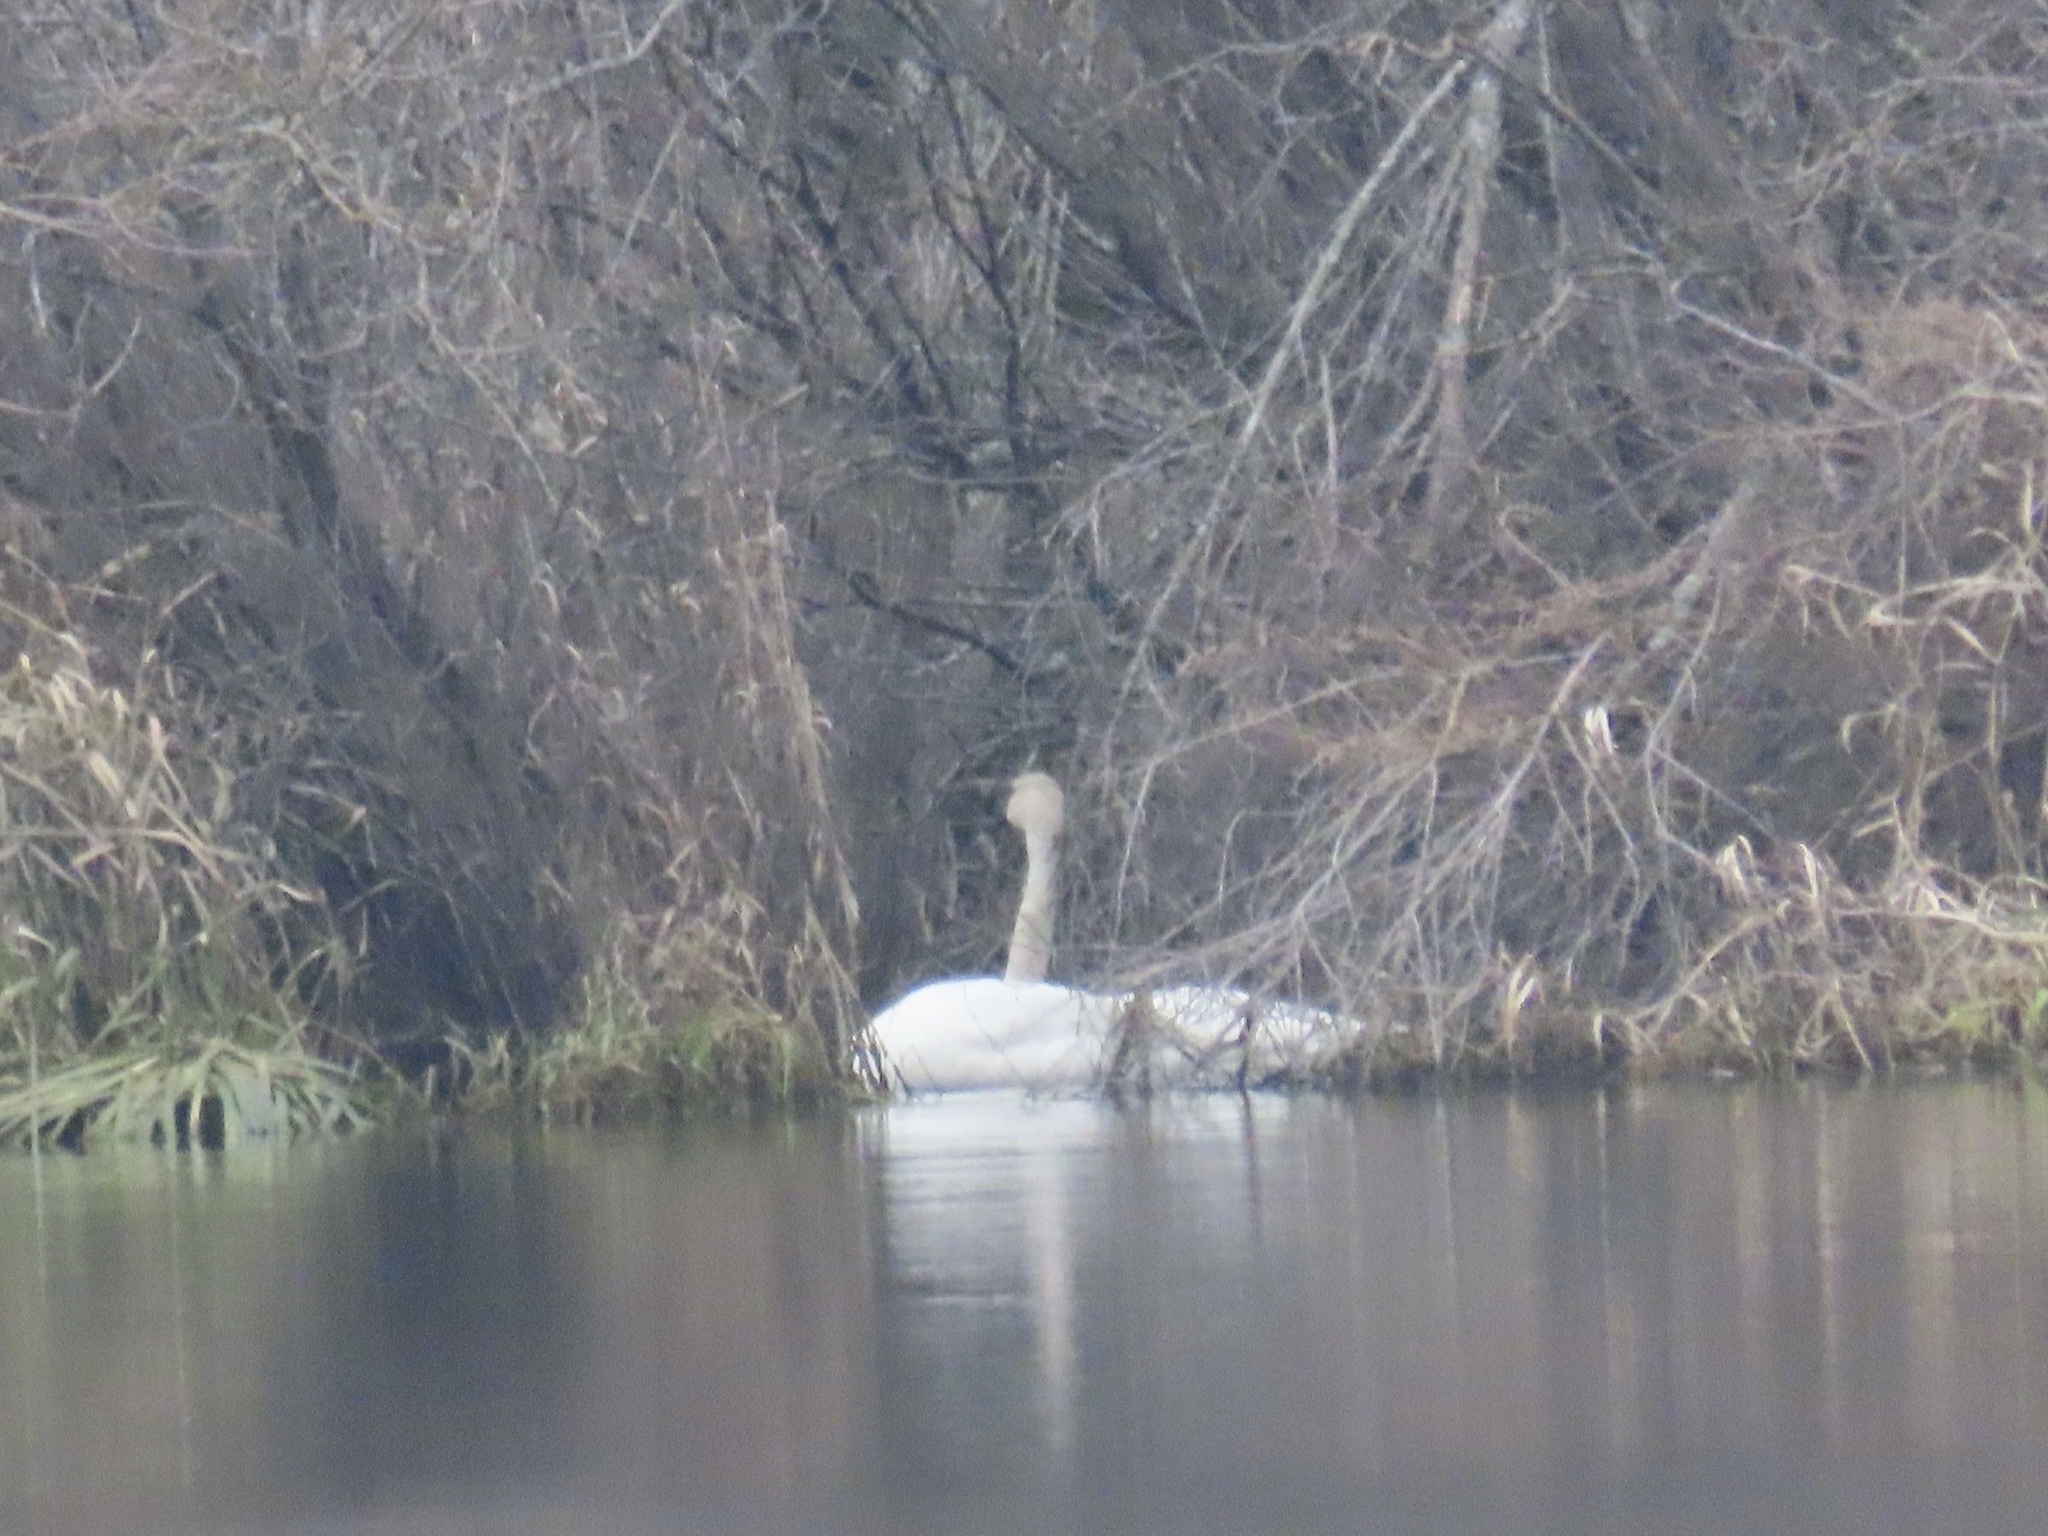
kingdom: Animalia
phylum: Chordata
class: Aves
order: Anseriformes
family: Anatidae
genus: Cygnus
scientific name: Cygnus buccinator
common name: Trumpeter swan
